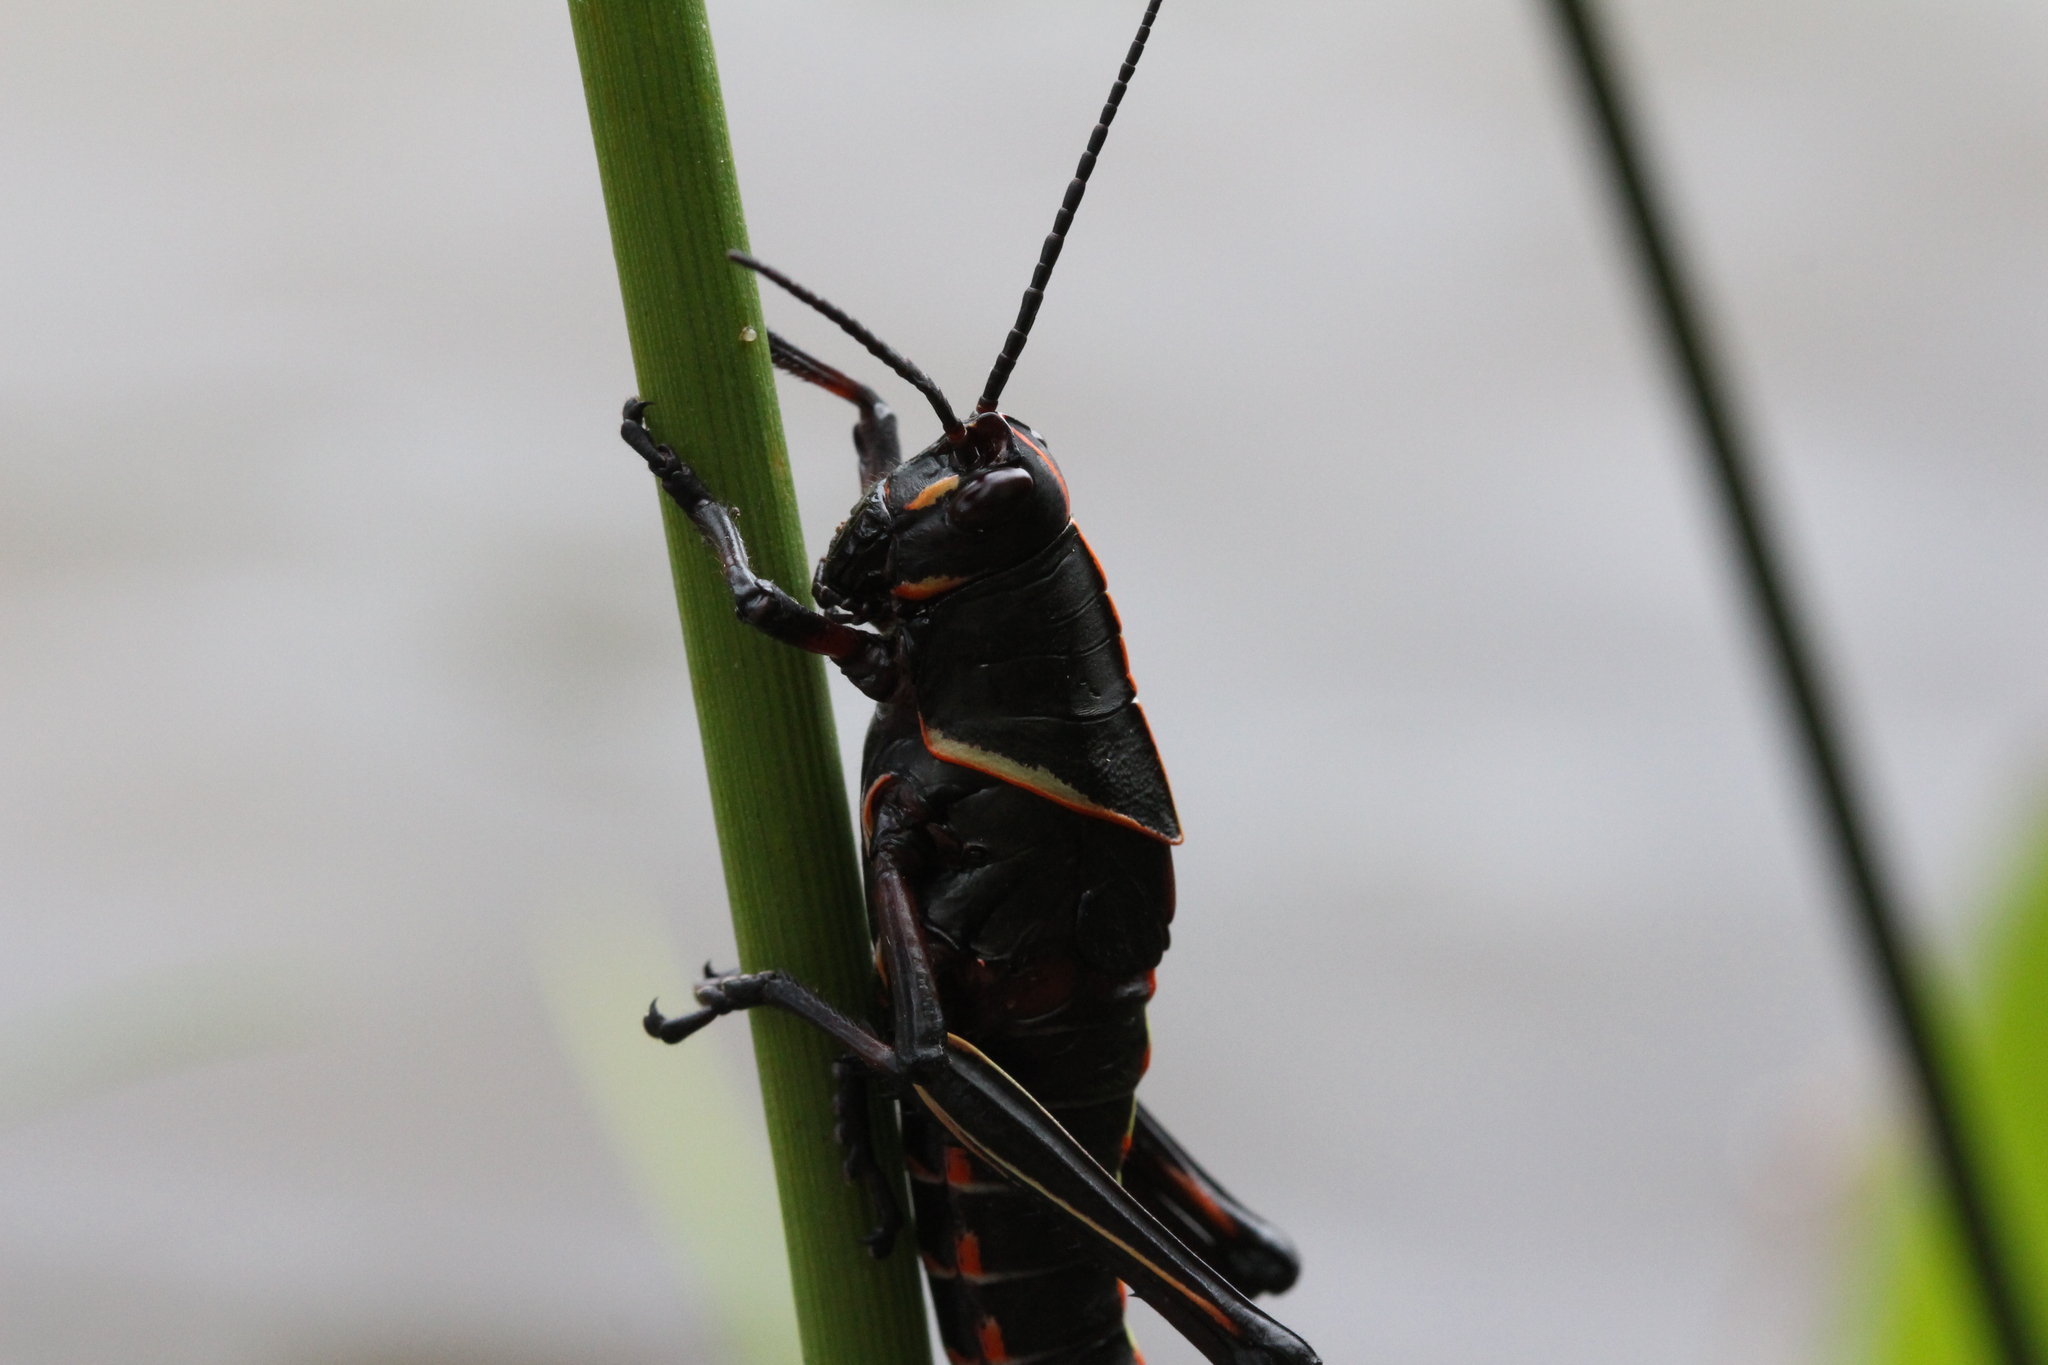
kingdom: Animalia
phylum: Arthropoda
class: Insecta
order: Orthoptera
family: Romaleidae
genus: Romalea
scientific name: Romalea microptera
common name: Eastern lubber grasshopper
